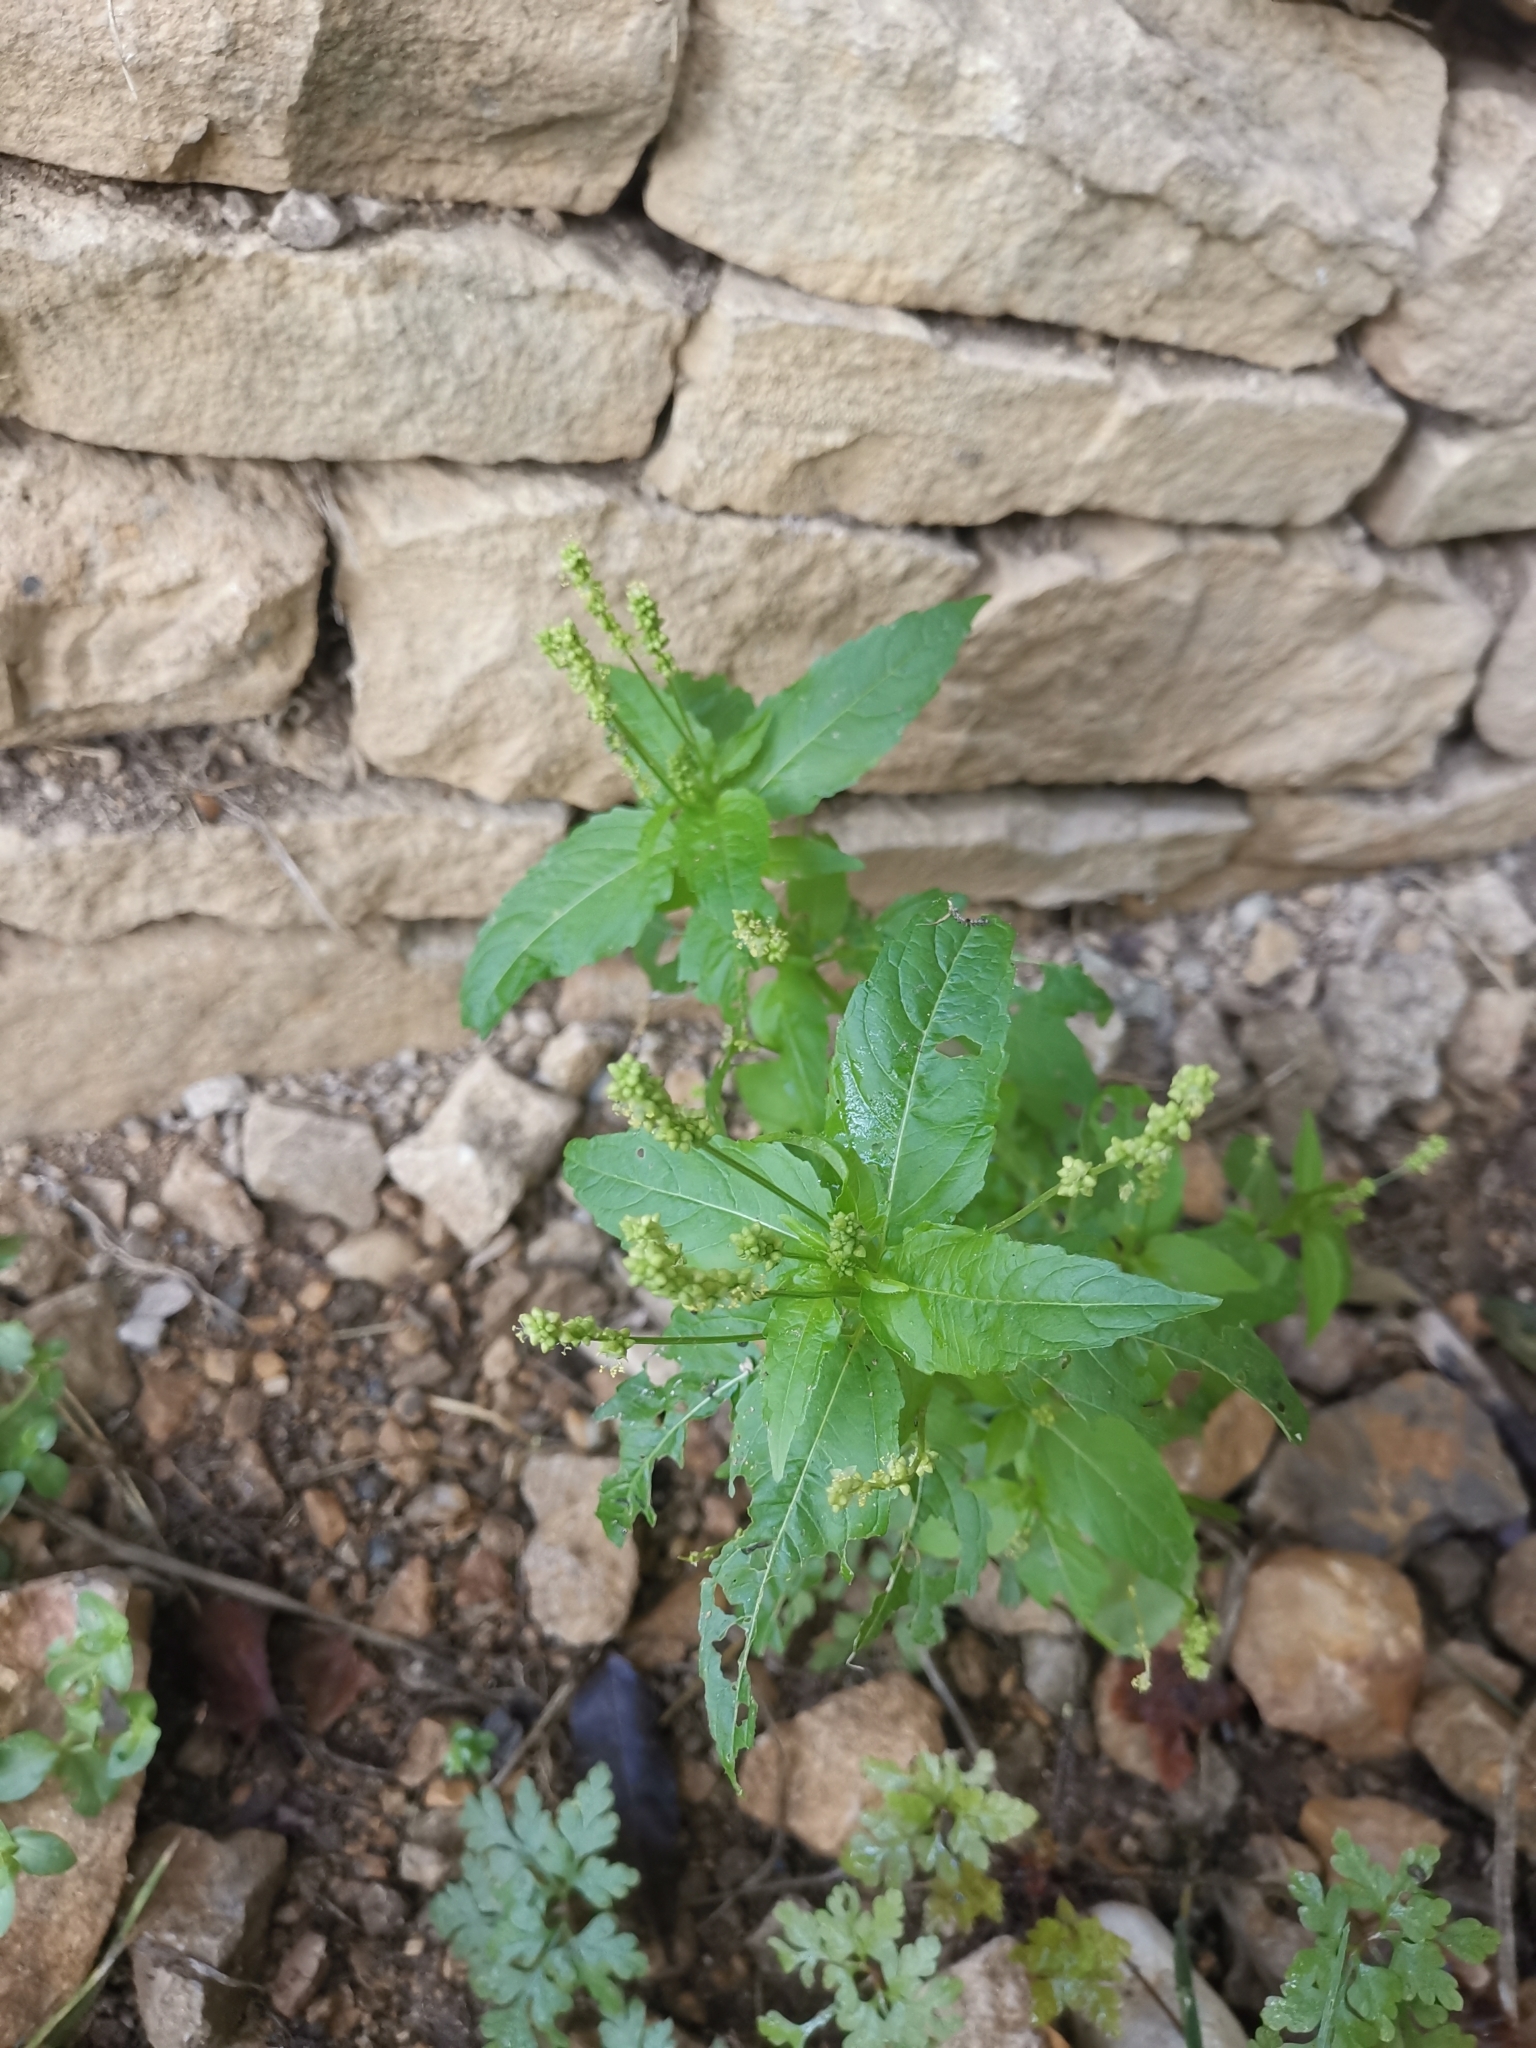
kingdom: Plantae
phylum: Tracheophyta
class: Magnoliopsida
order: Malpighiales
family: Euphorbiaceae
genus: Mercurialis
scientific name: Mercurialis annua
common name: Annual mercury
